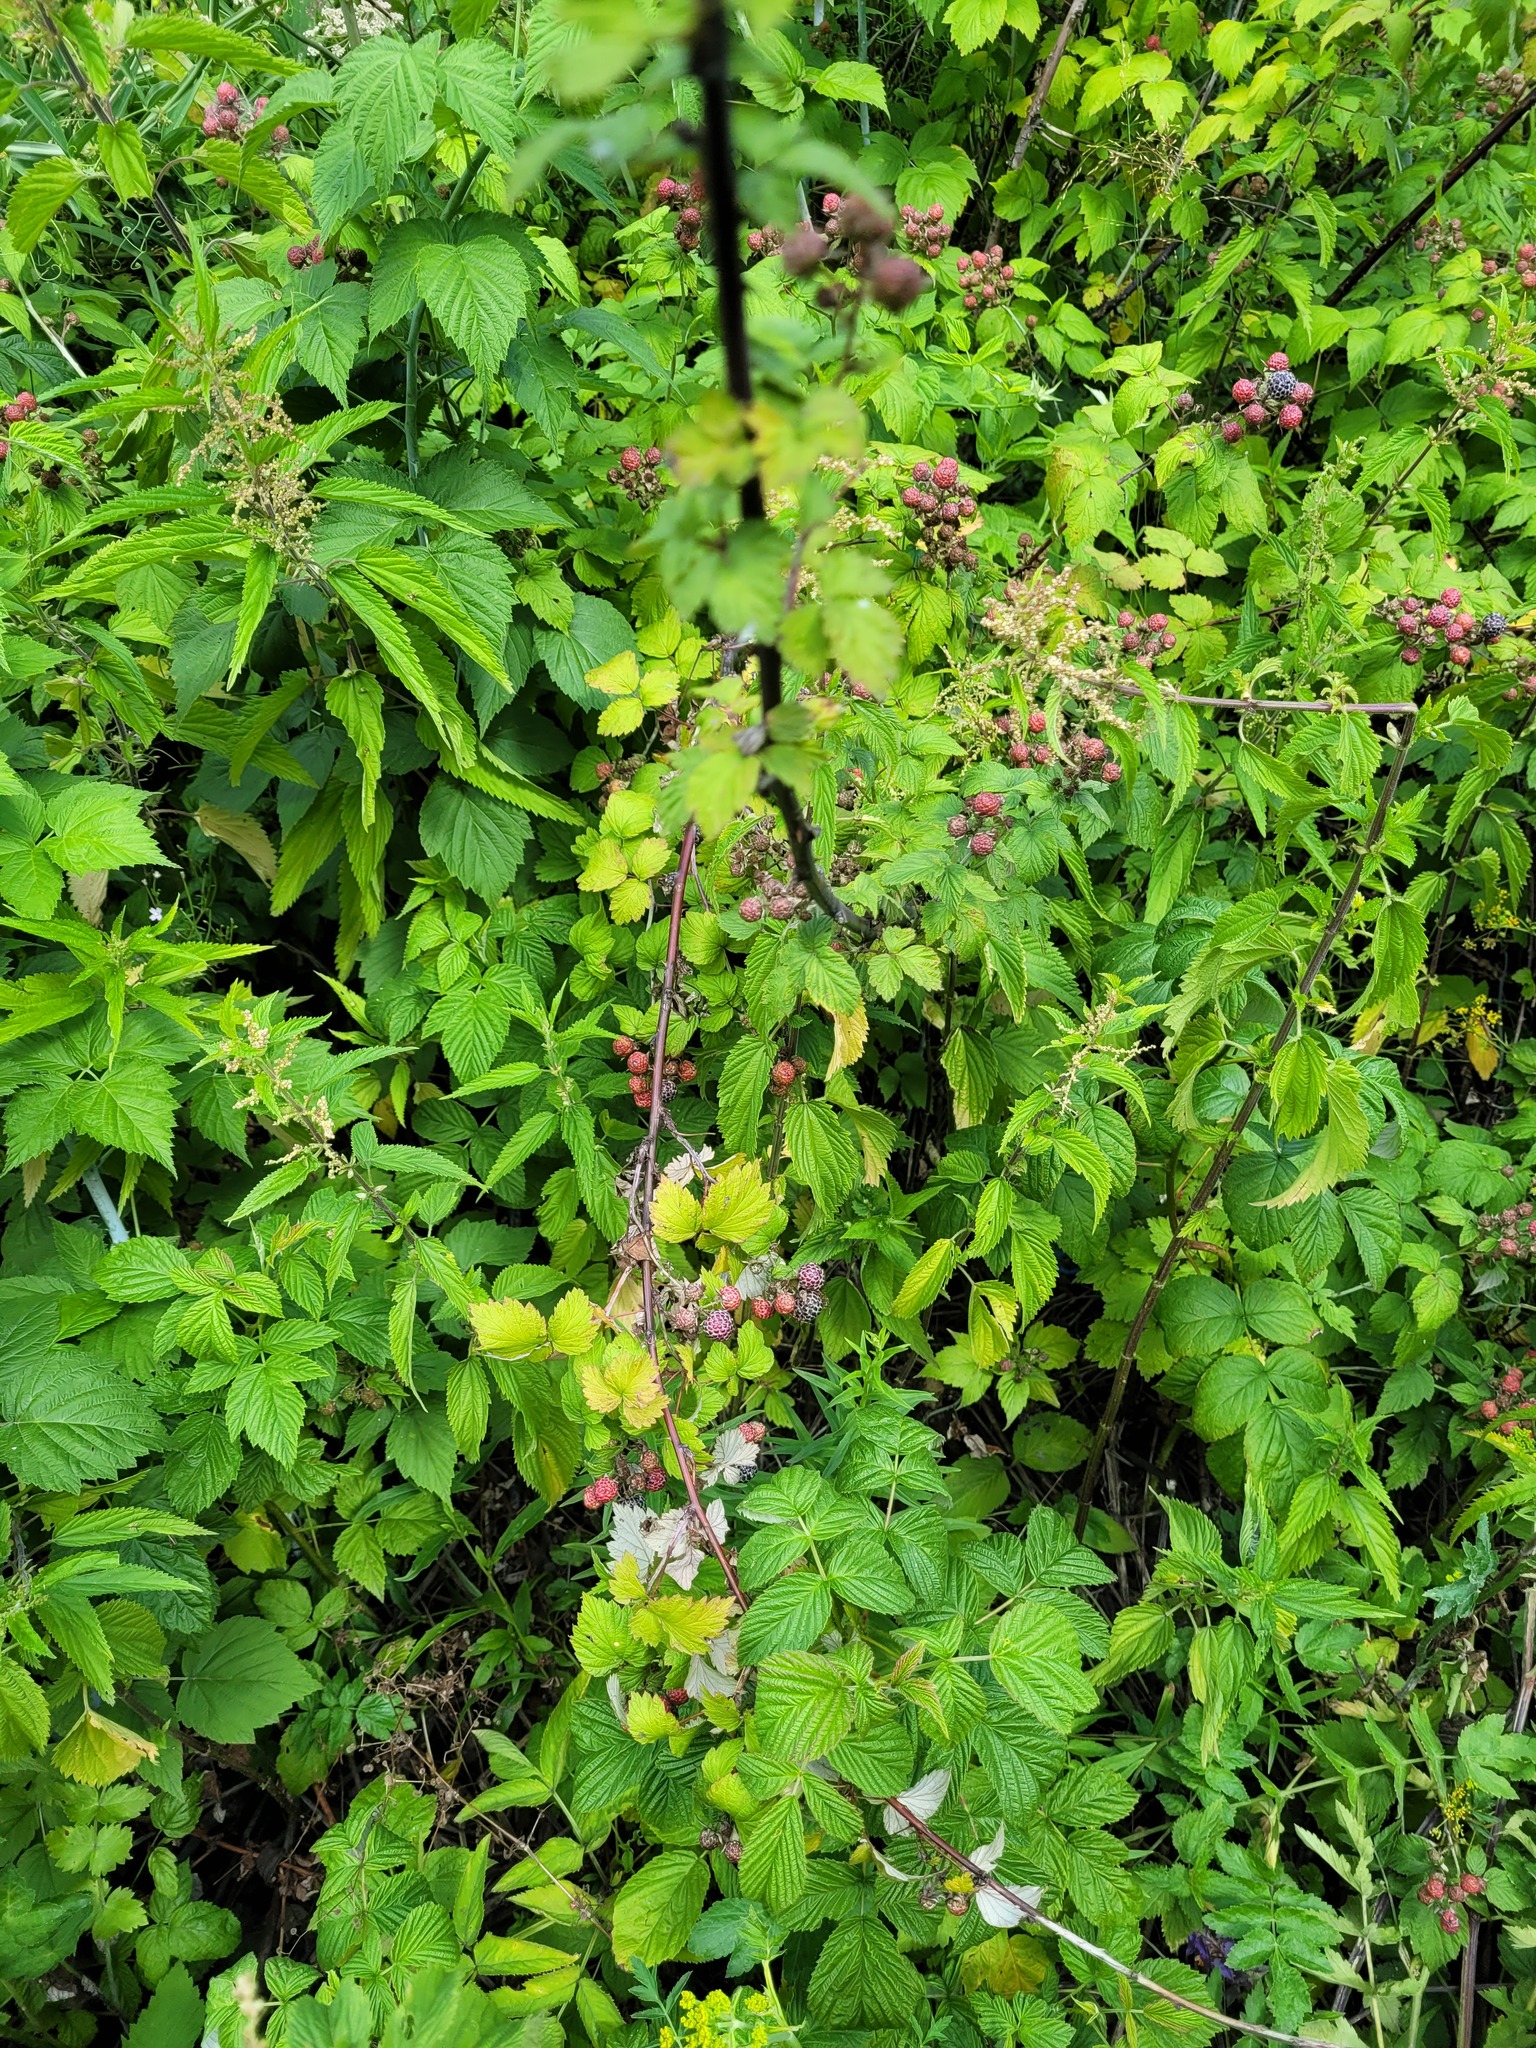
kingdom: Plantae
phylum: Tracheophyta
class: Magnoliopsida
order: Rosales
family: Rosaceae
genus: Rubus
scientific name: Rubus occidentalis
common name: Black raspberry
